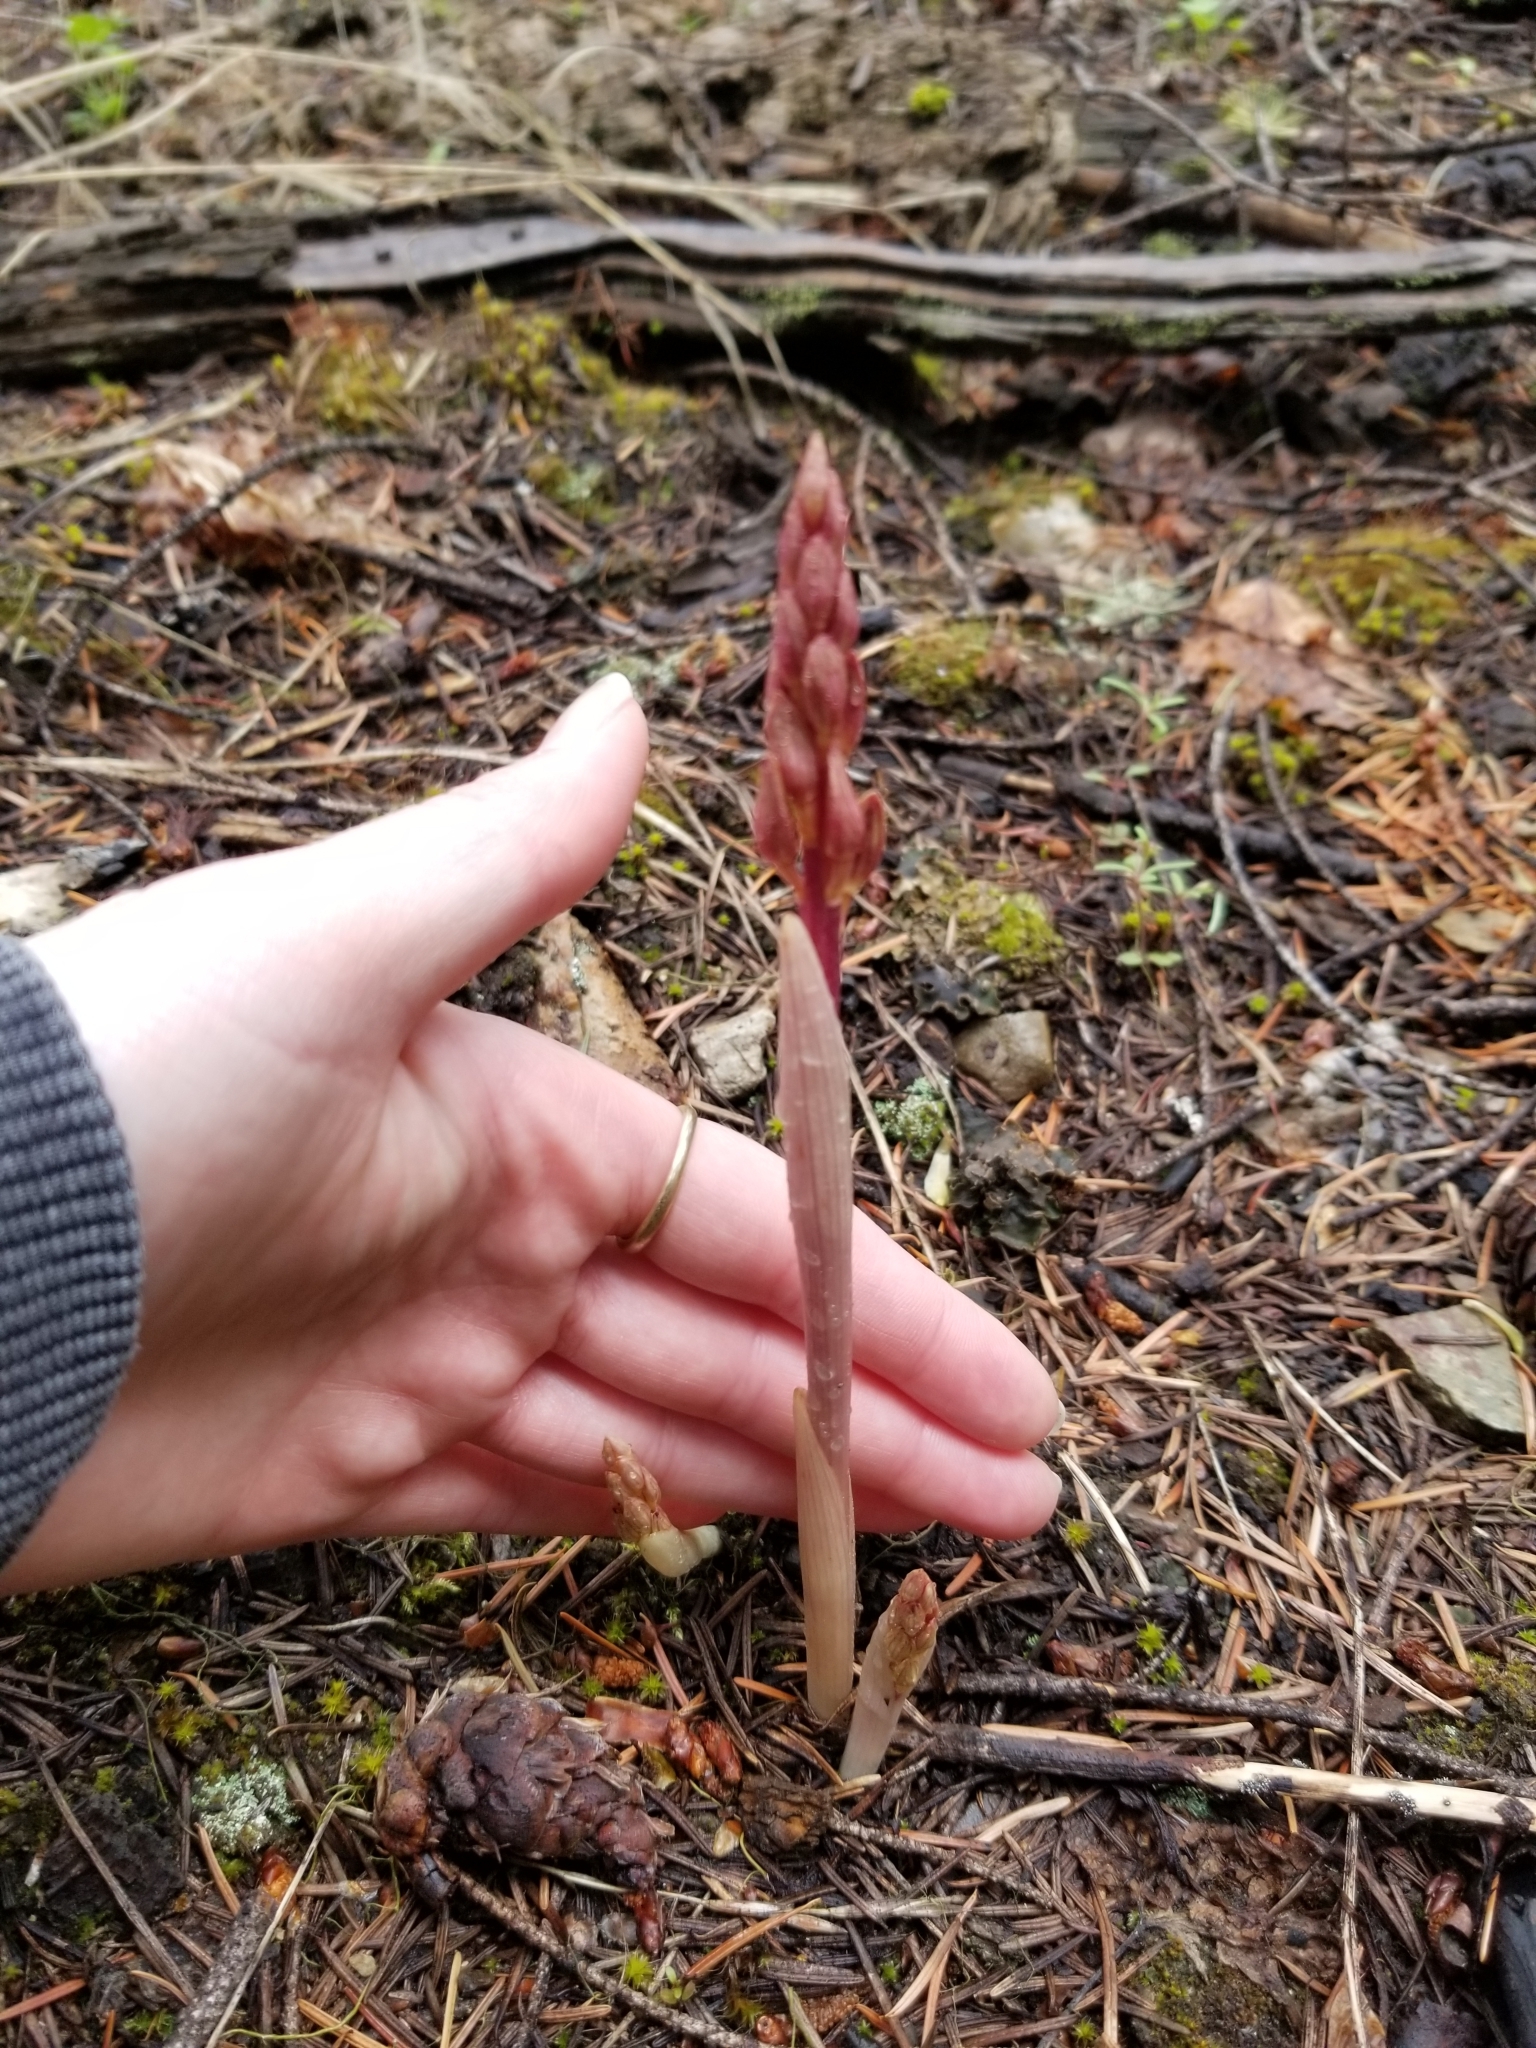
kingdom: Plantae
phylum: Tracheophyta
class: Liliopsida
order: Asparagales
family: Orchidaceae
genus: Corallorhiza
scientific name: Corallorhiza striata
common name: Hooded coralroot
